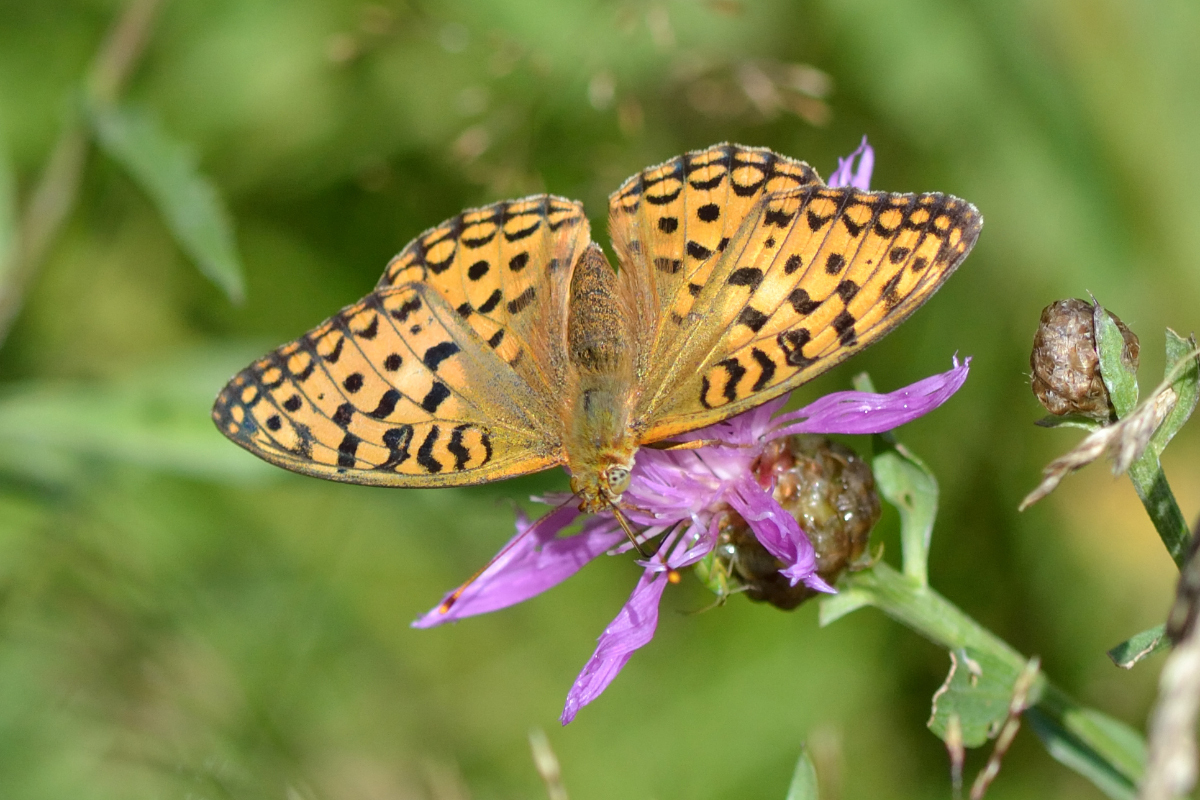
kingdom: Animalia
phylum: Arthropoda
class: Insecta
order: Lepidoptera
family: Nymphalidae
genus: Fabriciana
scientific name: Fabriciana adippe
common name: High brown fritillary
